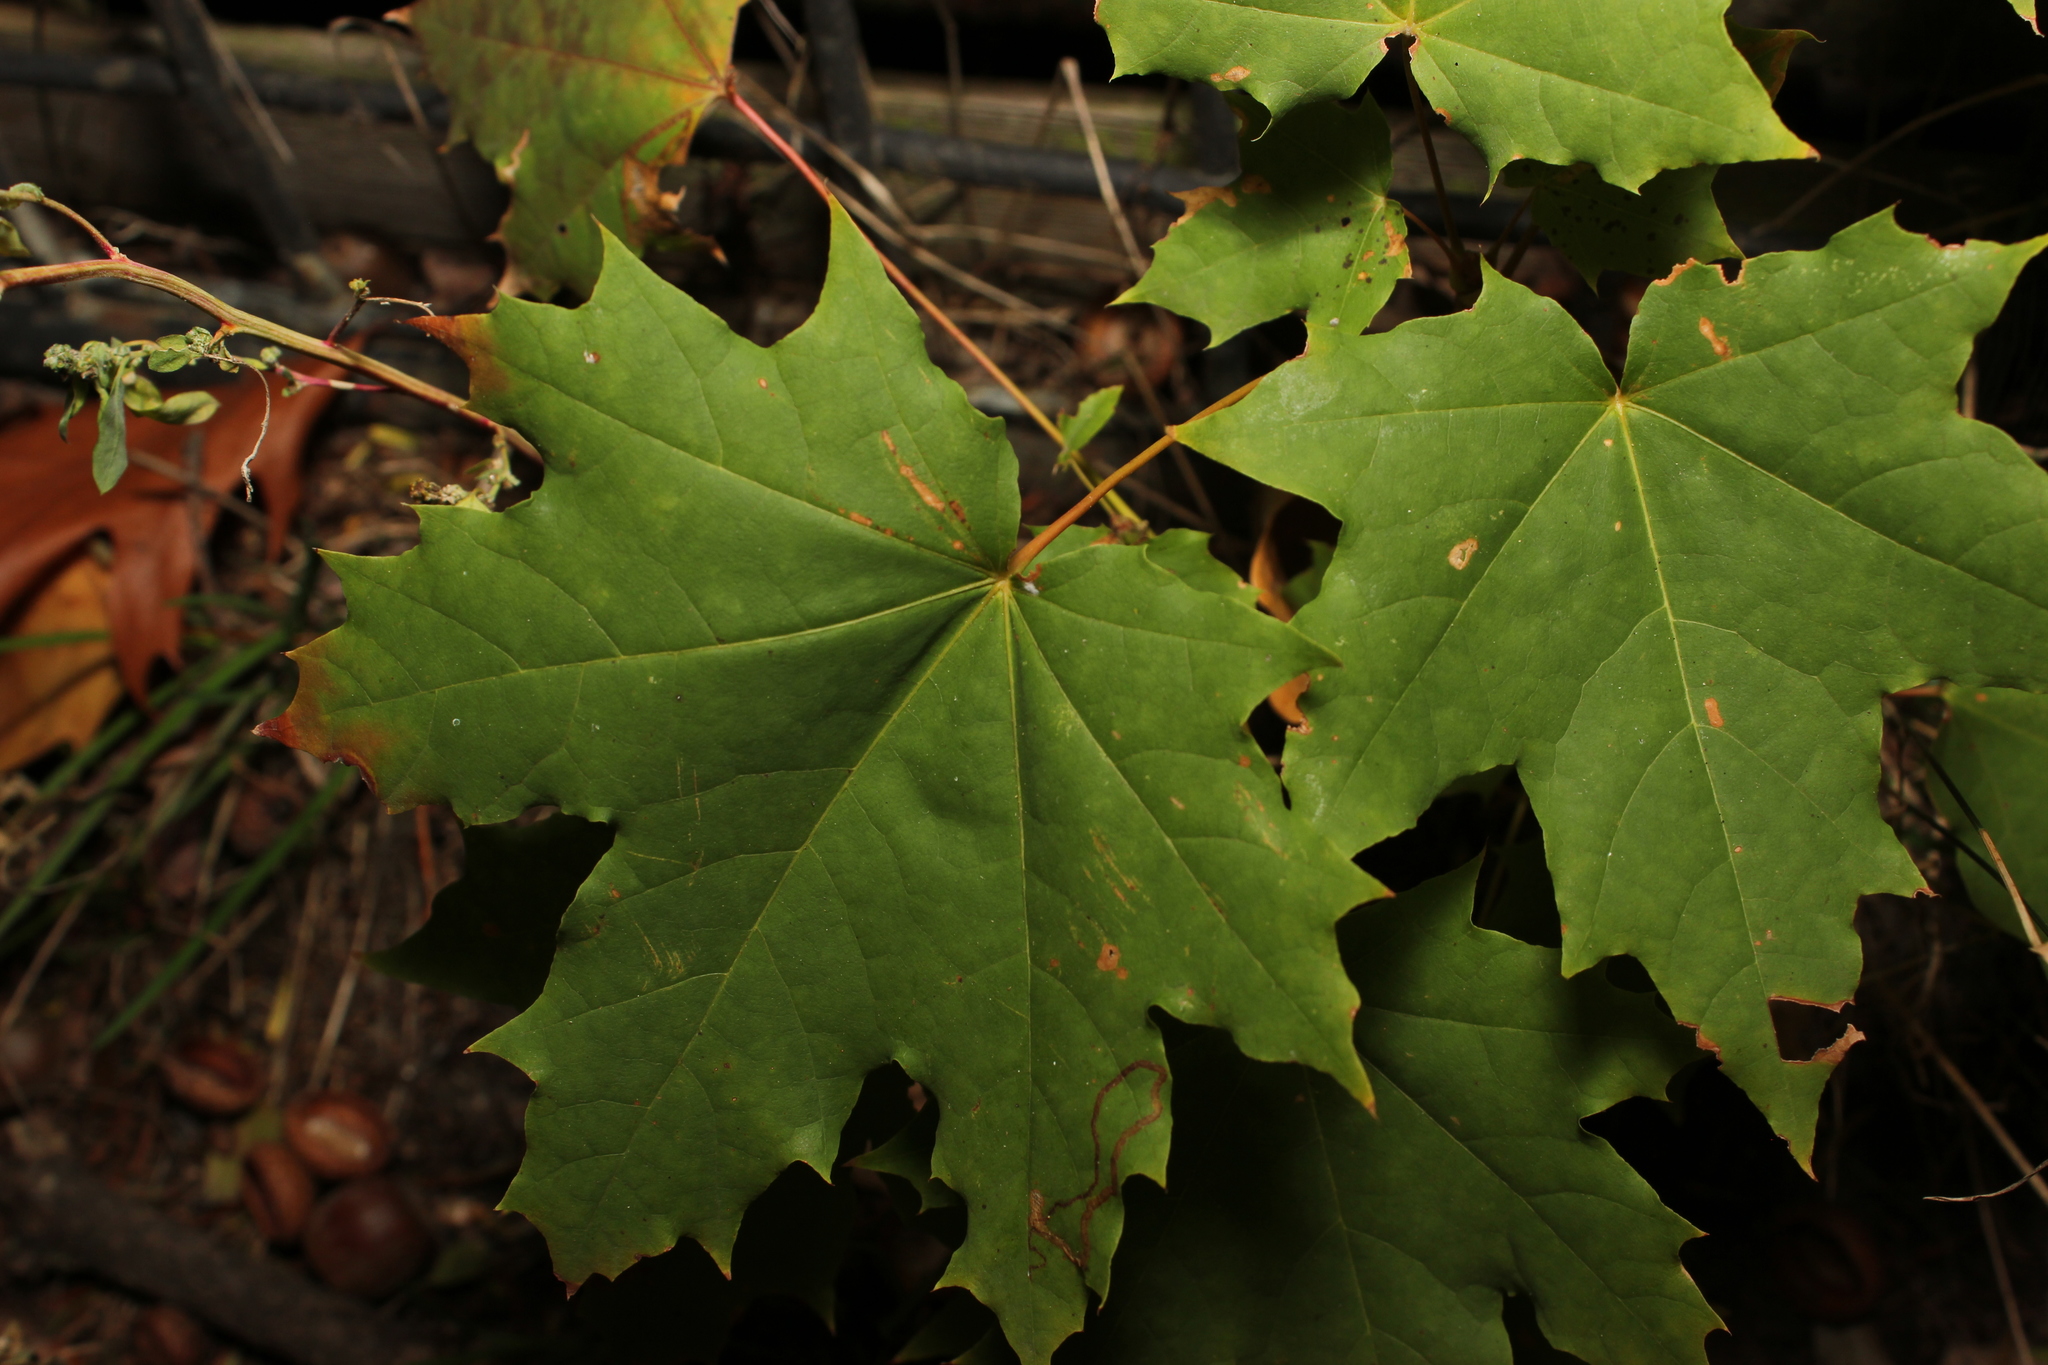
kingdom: Plantae
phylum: Tracheophyta
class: Magnoliopsida
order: Sapindales
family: Sapindaceae
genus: Acer
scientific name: Acer platanoides
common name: Norway maple
